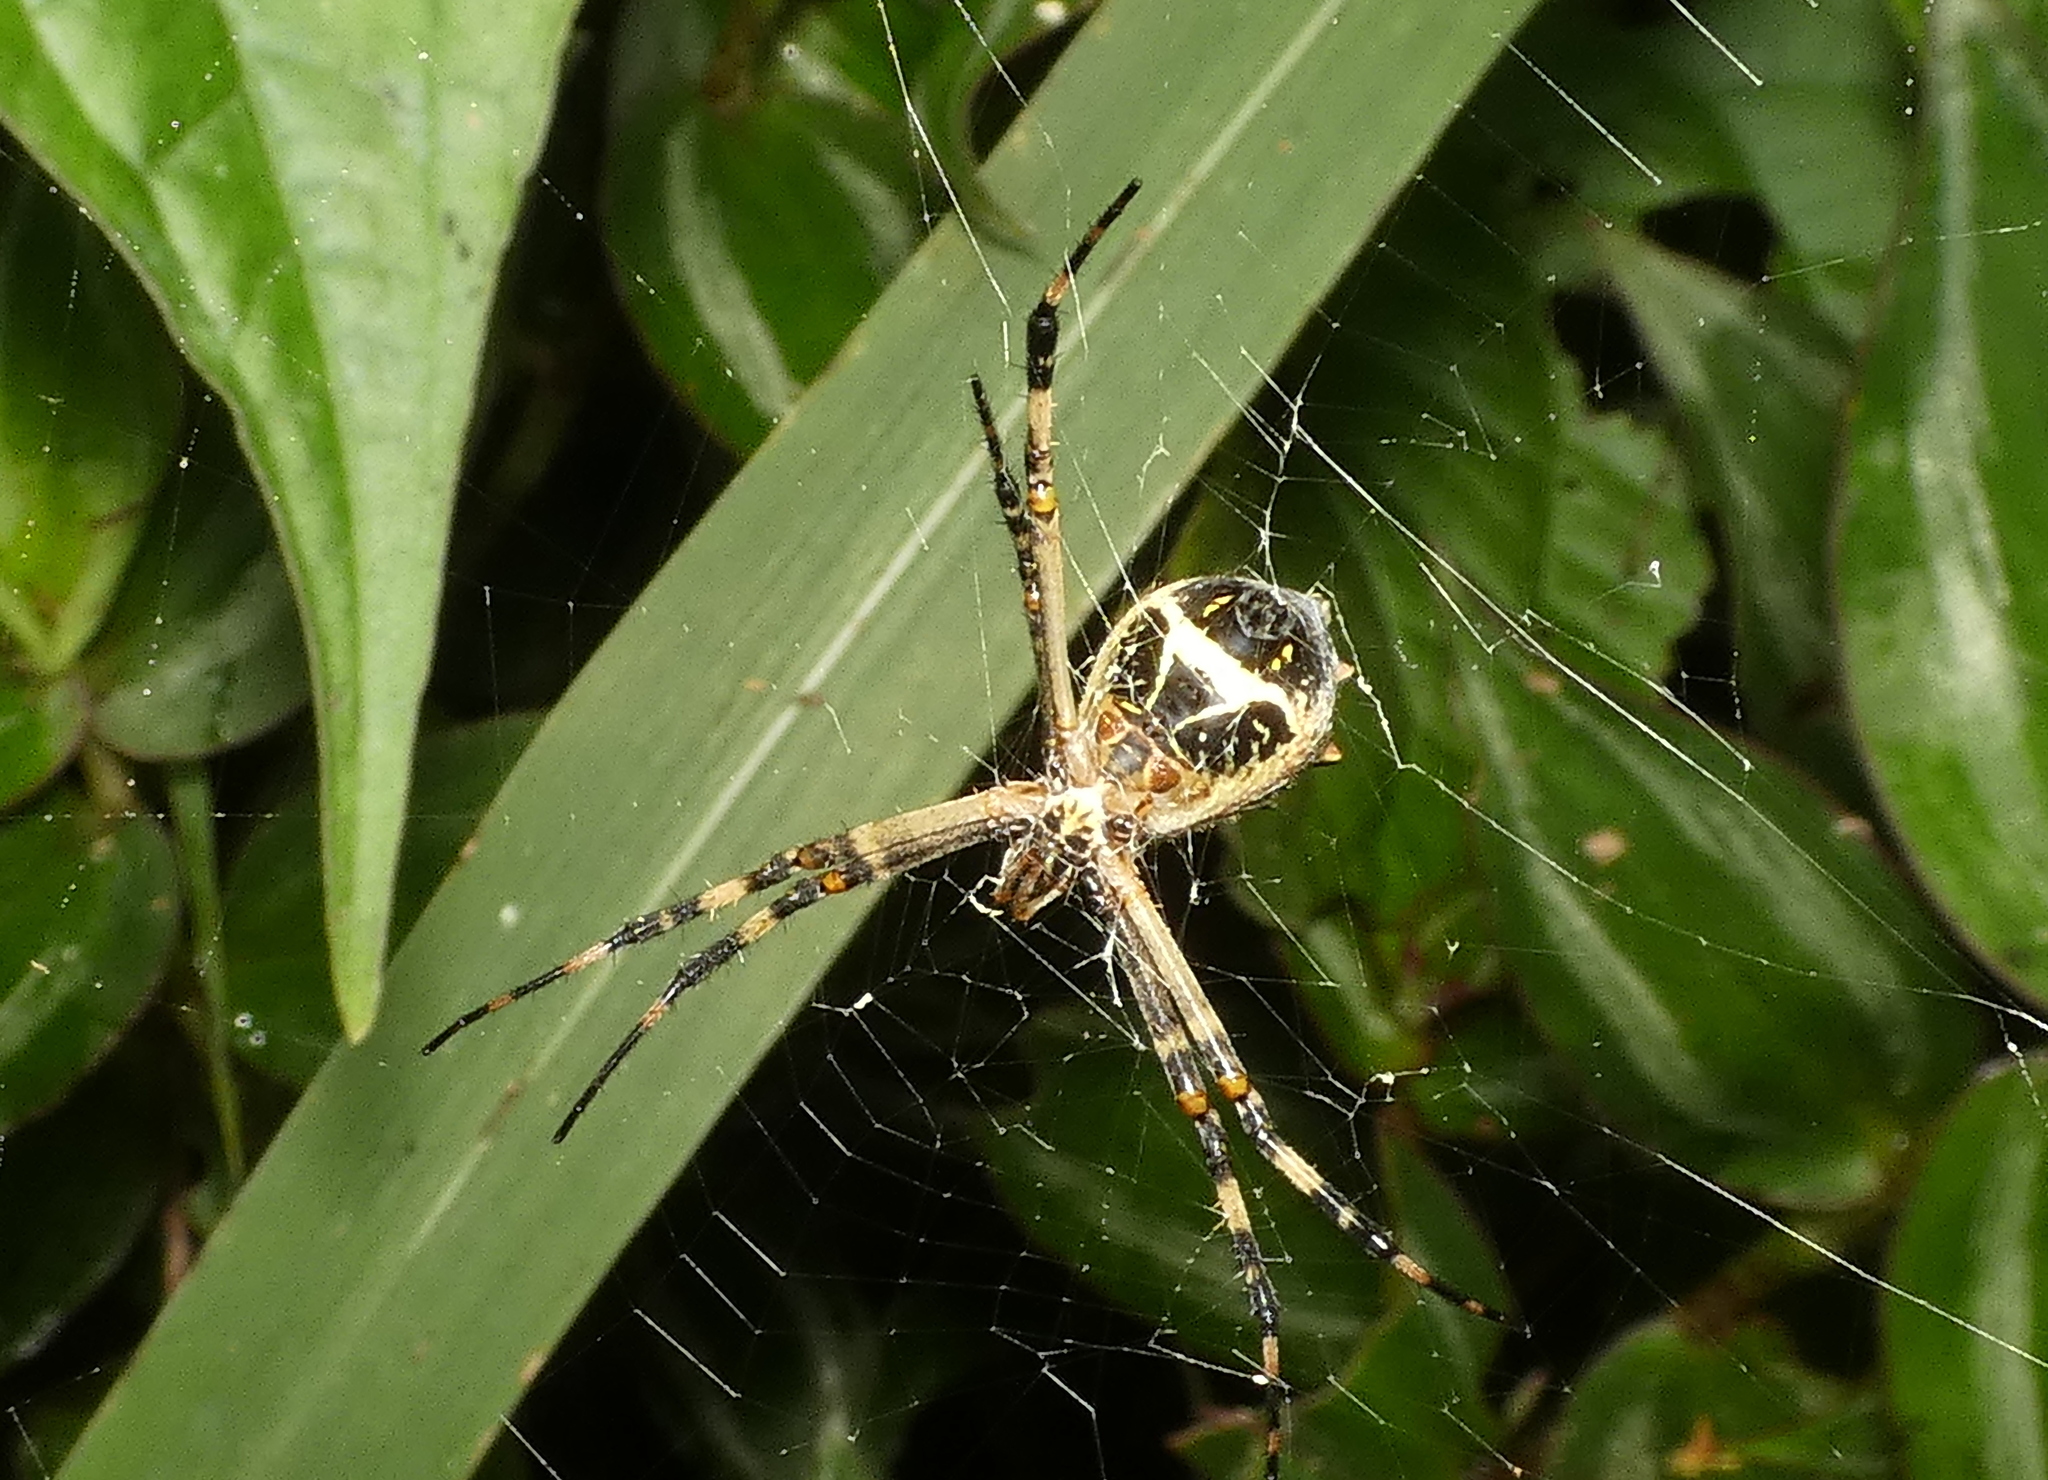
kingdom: Animalia
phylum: Arthropoda
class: Arachnida
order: Araneae
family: Araneidae
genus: Argiope
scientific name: Argiope argentata
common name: Orb weavers
